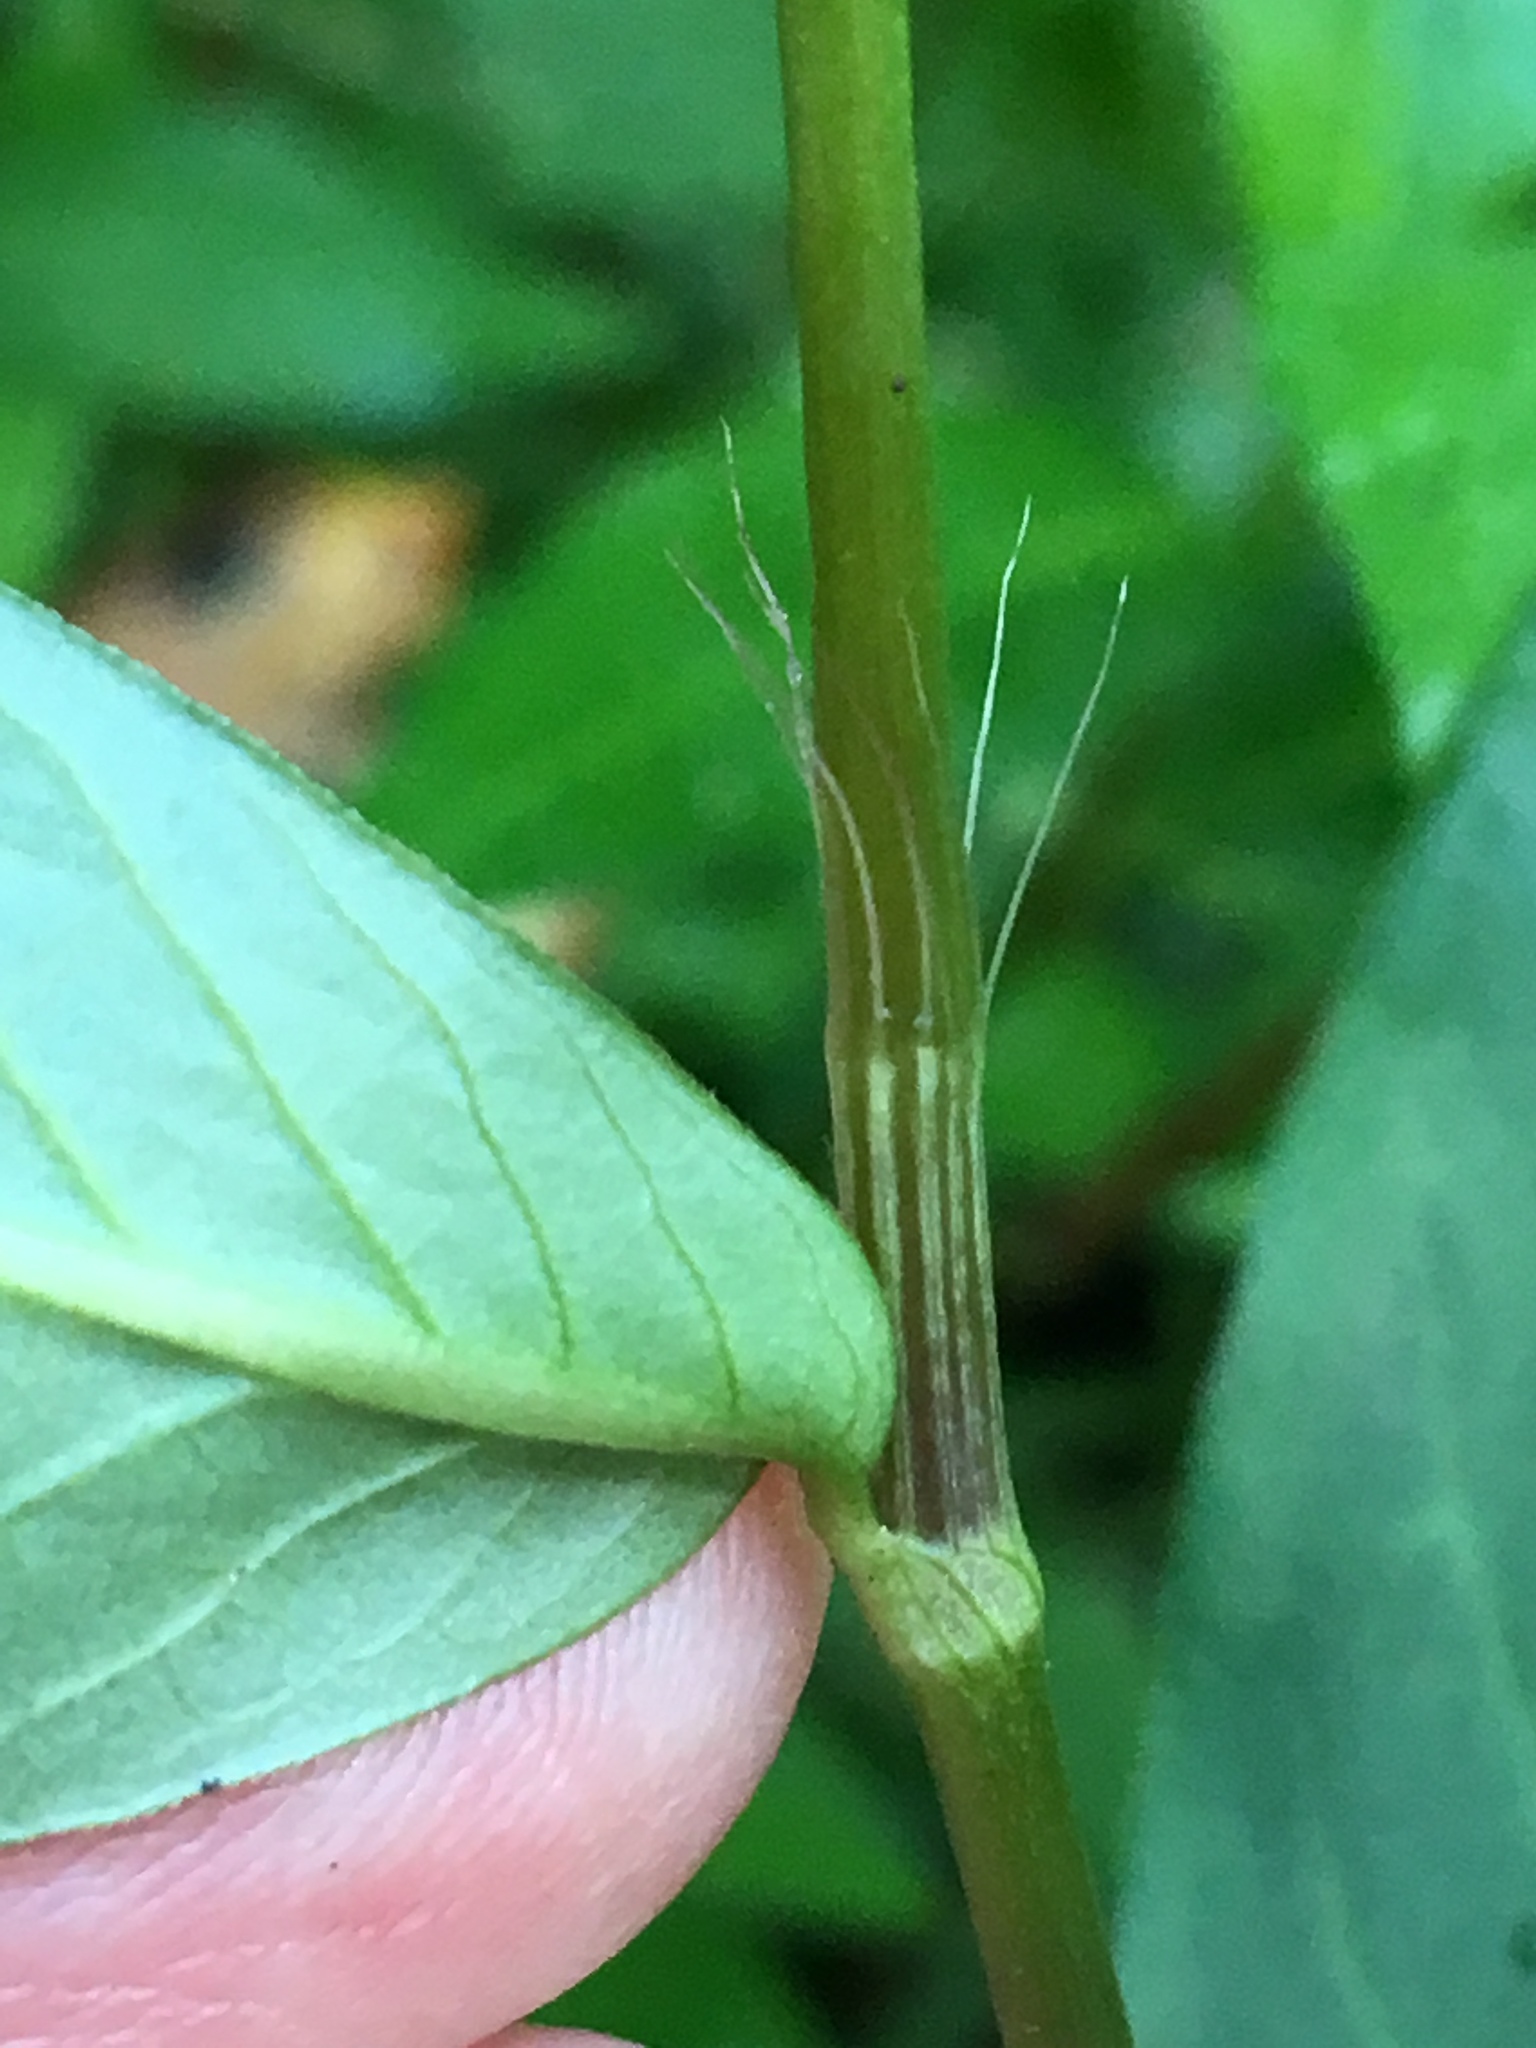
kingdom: Plantae
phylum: Tracheophyta
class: Magnoliopsida
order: Caryophyllales
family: Polygonaceae
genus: Persicaria
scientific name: Persicaria longiseta
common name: Bristly lady's-thumb
